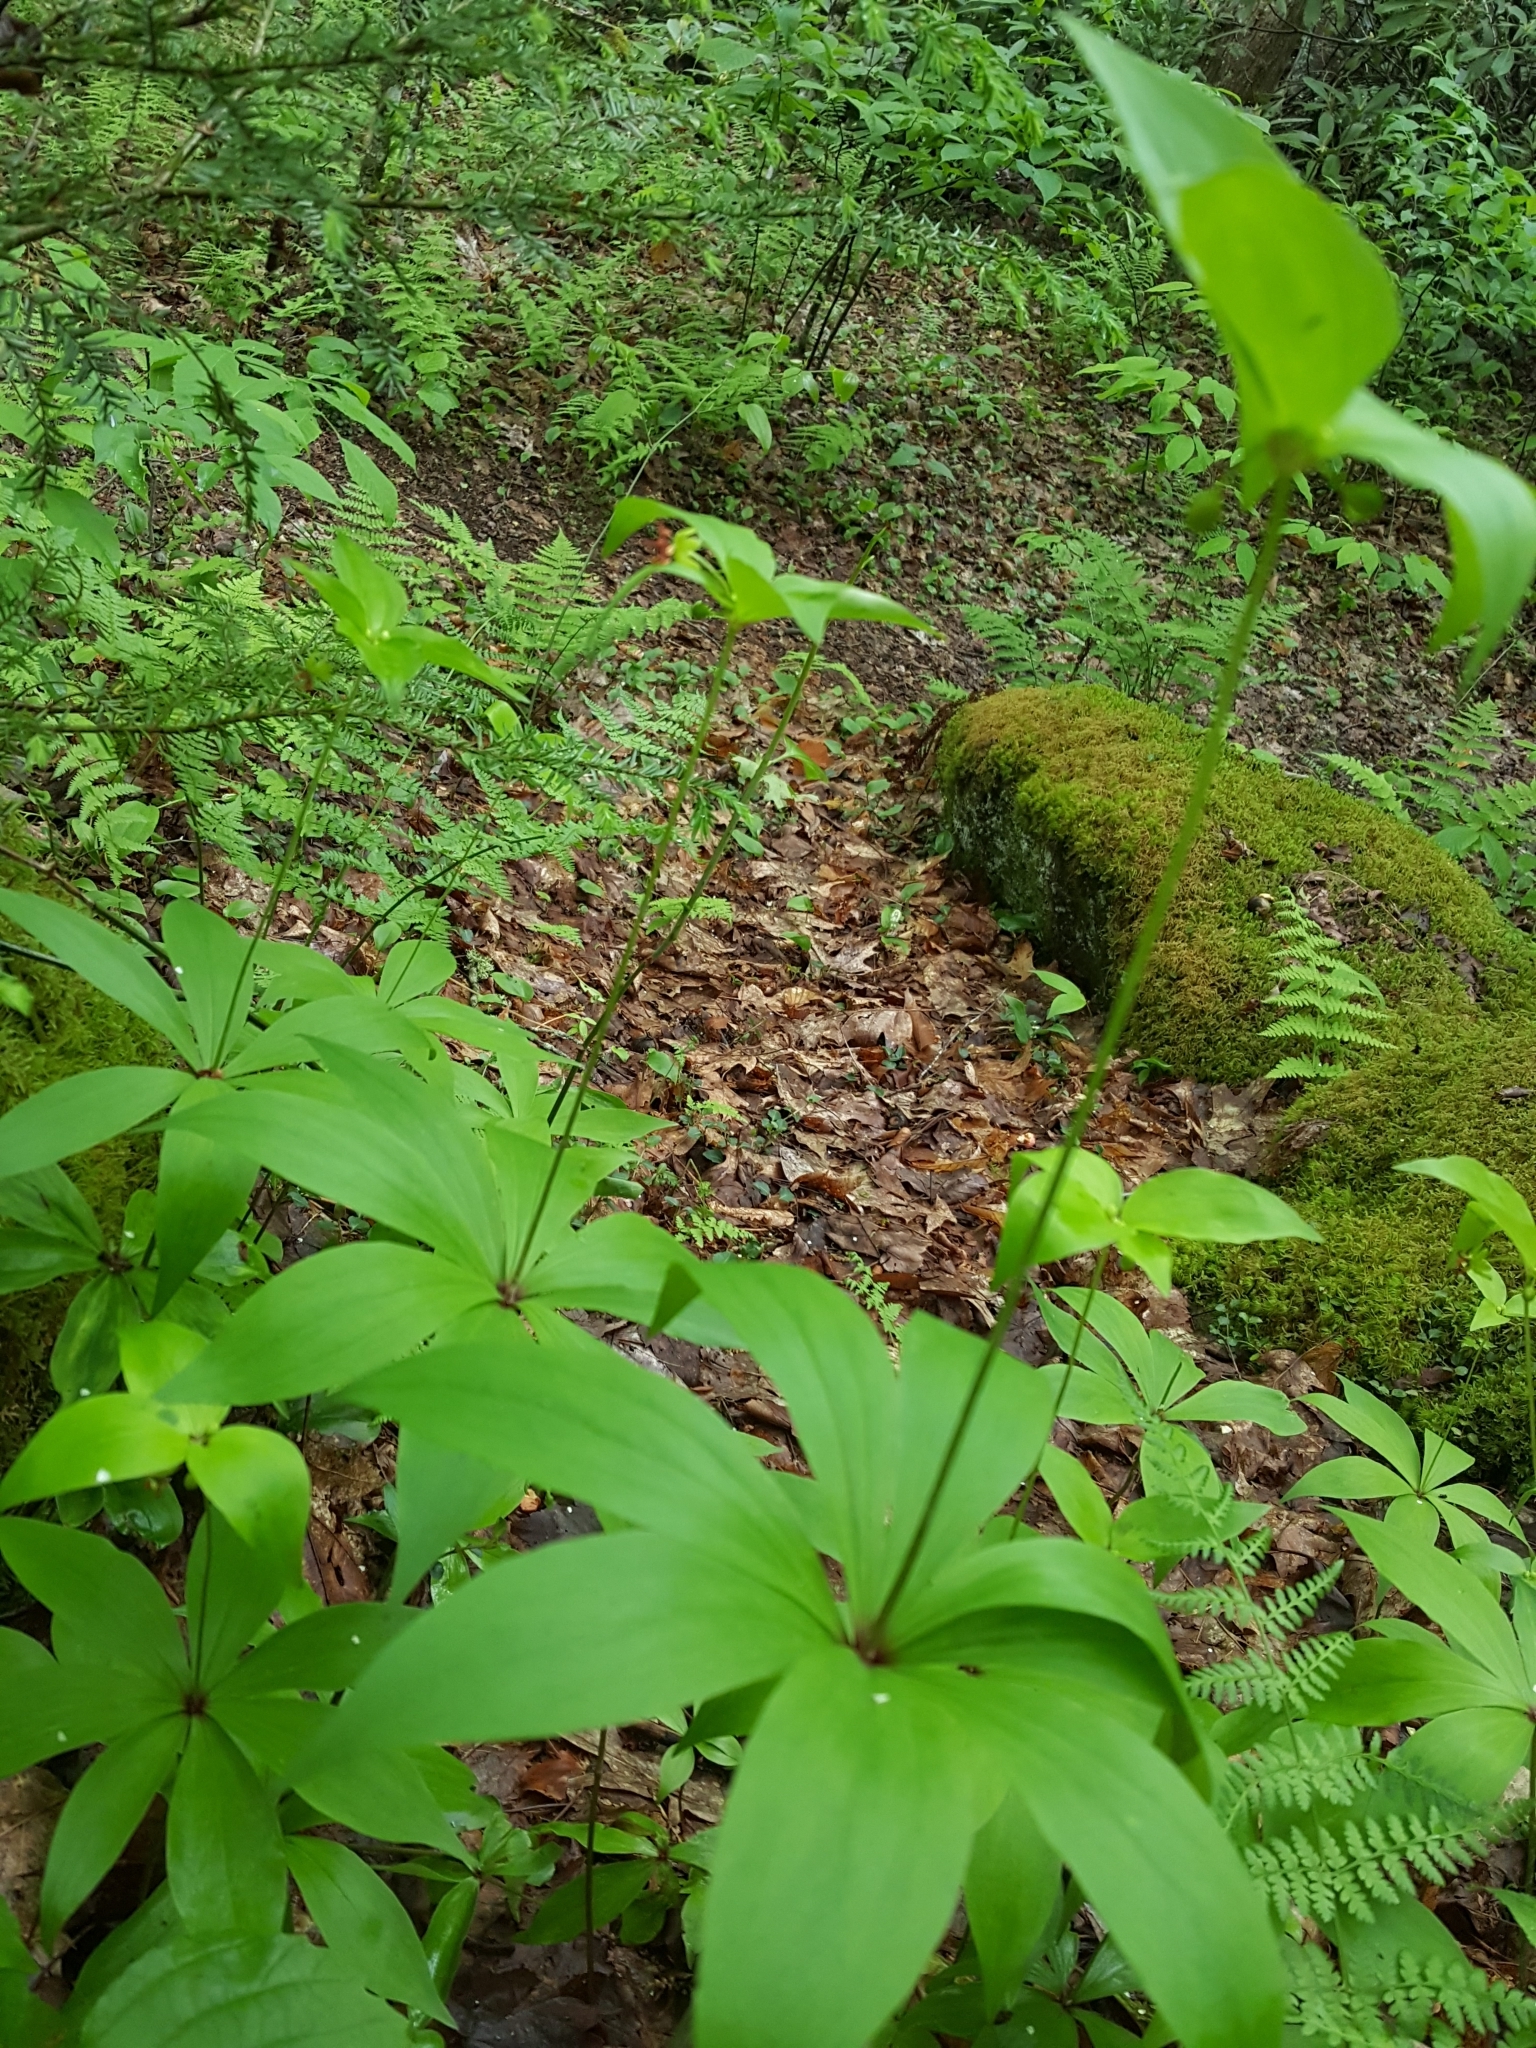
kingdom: Plantae
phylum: Tracheophyta
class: Liliopsida
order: Liliales
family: Liliaceae
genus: Medeola
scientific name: Medeola virginiana
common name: Indian cucumber-root
